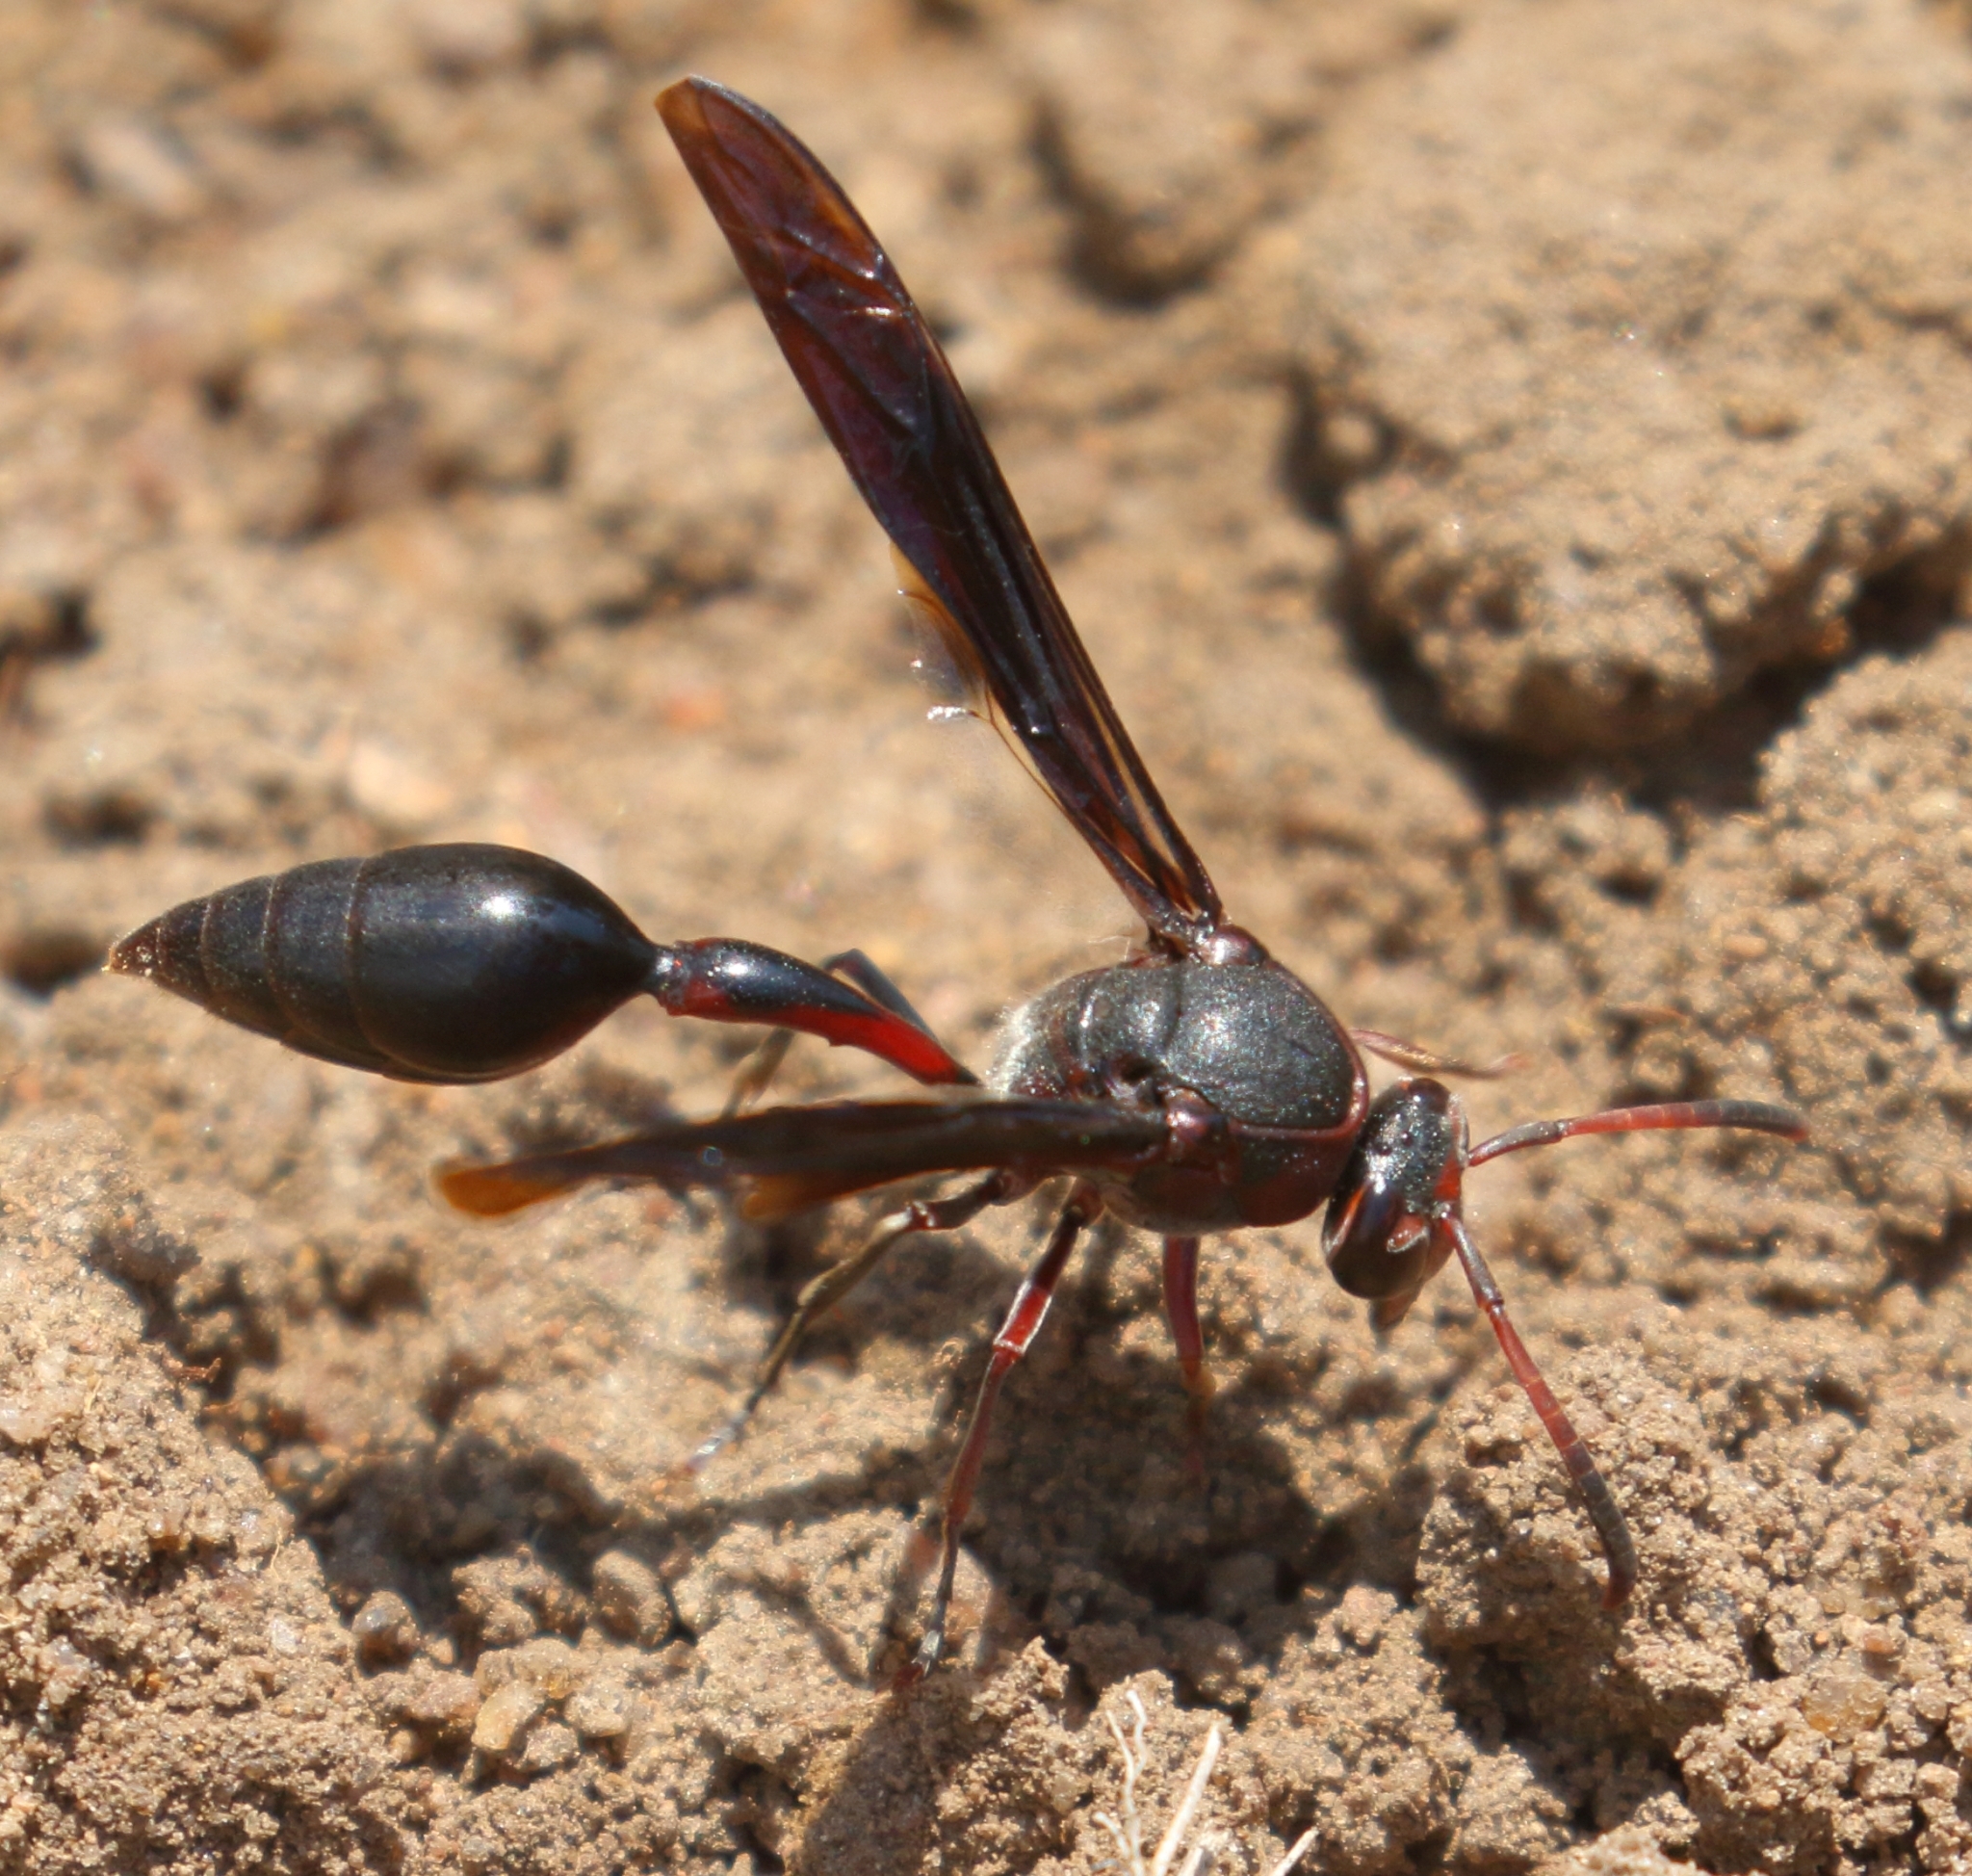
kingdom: Animalia
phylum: Arthropoda
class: Insecta
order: Hymenoptera
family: Eumenidae
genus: Delta
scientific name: Delta emarginatum
